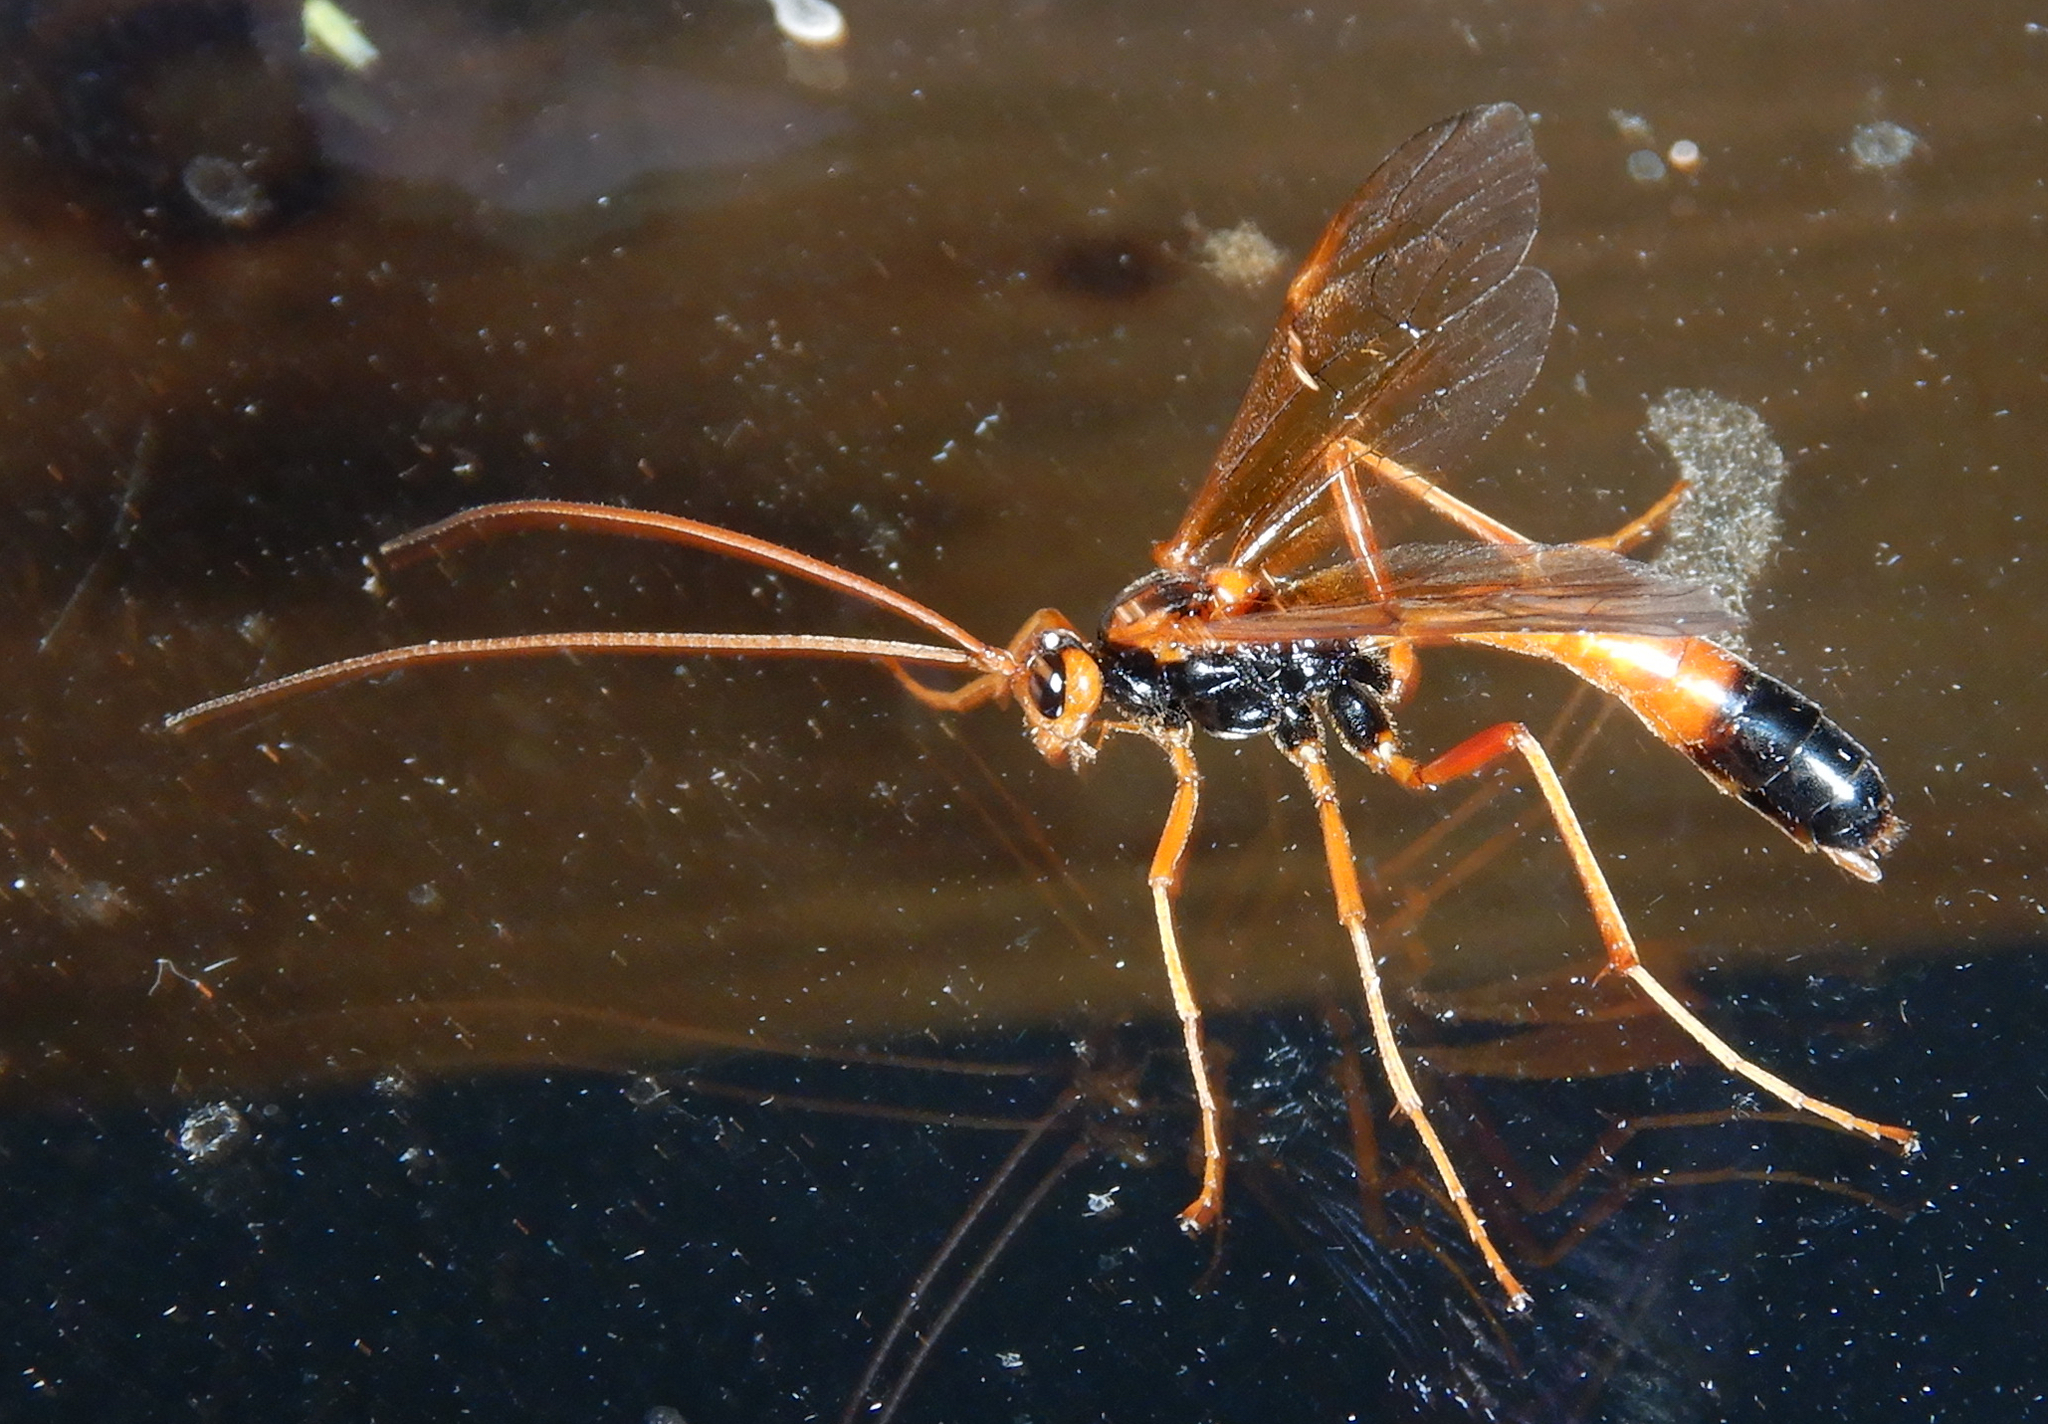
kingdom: Animalia
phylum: Arthropoda
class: Insecta
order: Hymenoptera
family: Ichneumonidae
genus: Opheltes
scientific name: Opheltes glaucopterus
